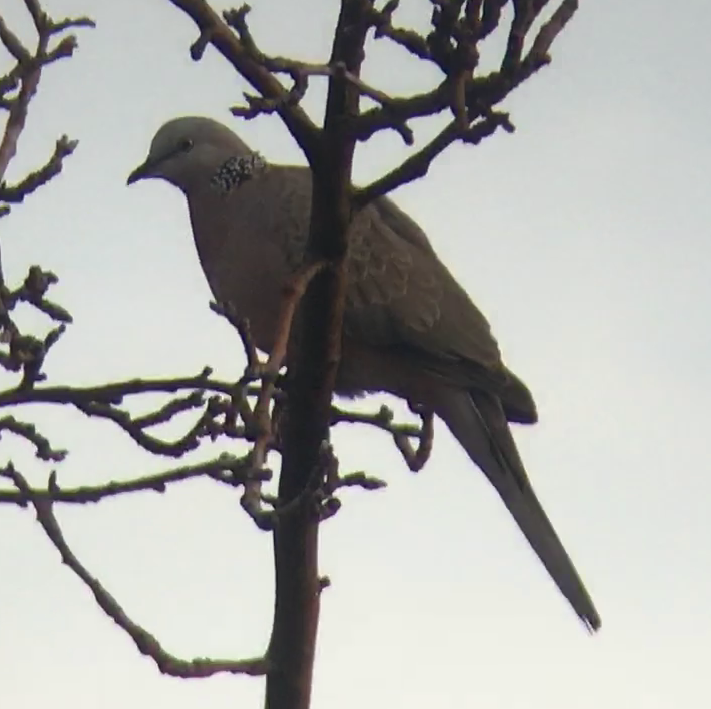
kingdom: Animalia
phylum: Chordata
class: Aves
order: Columbiformes
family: Columbidae
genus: Spilopelia
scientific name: Spilopelia chinensis
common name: Spotted dove
